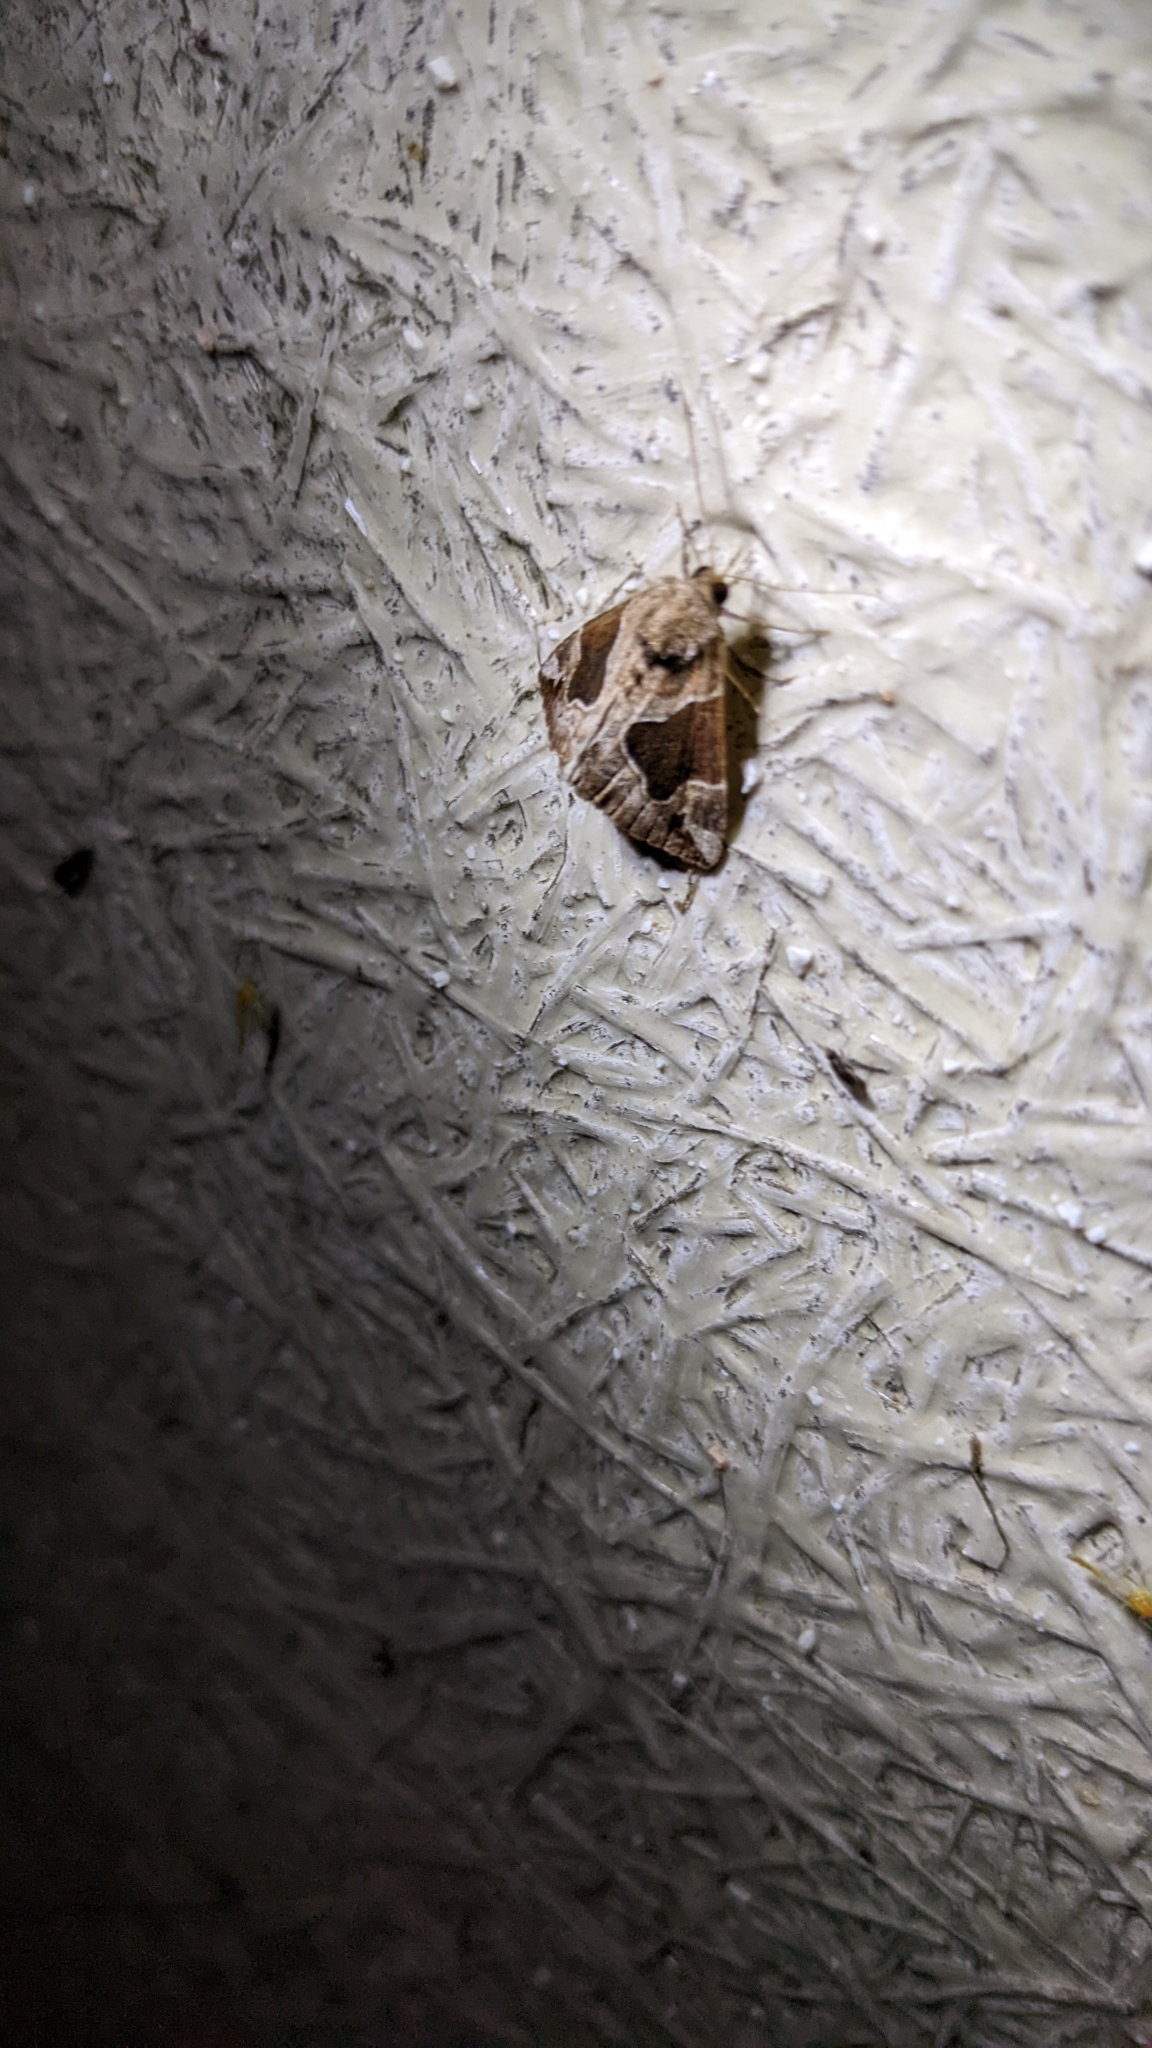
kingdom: Animalia
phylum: Arthropoda
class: Insecta
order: Lepidoptera
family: Erebidae
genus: Hypena
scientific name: Hypena manalis
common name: Flowing-line bomolocha moth
